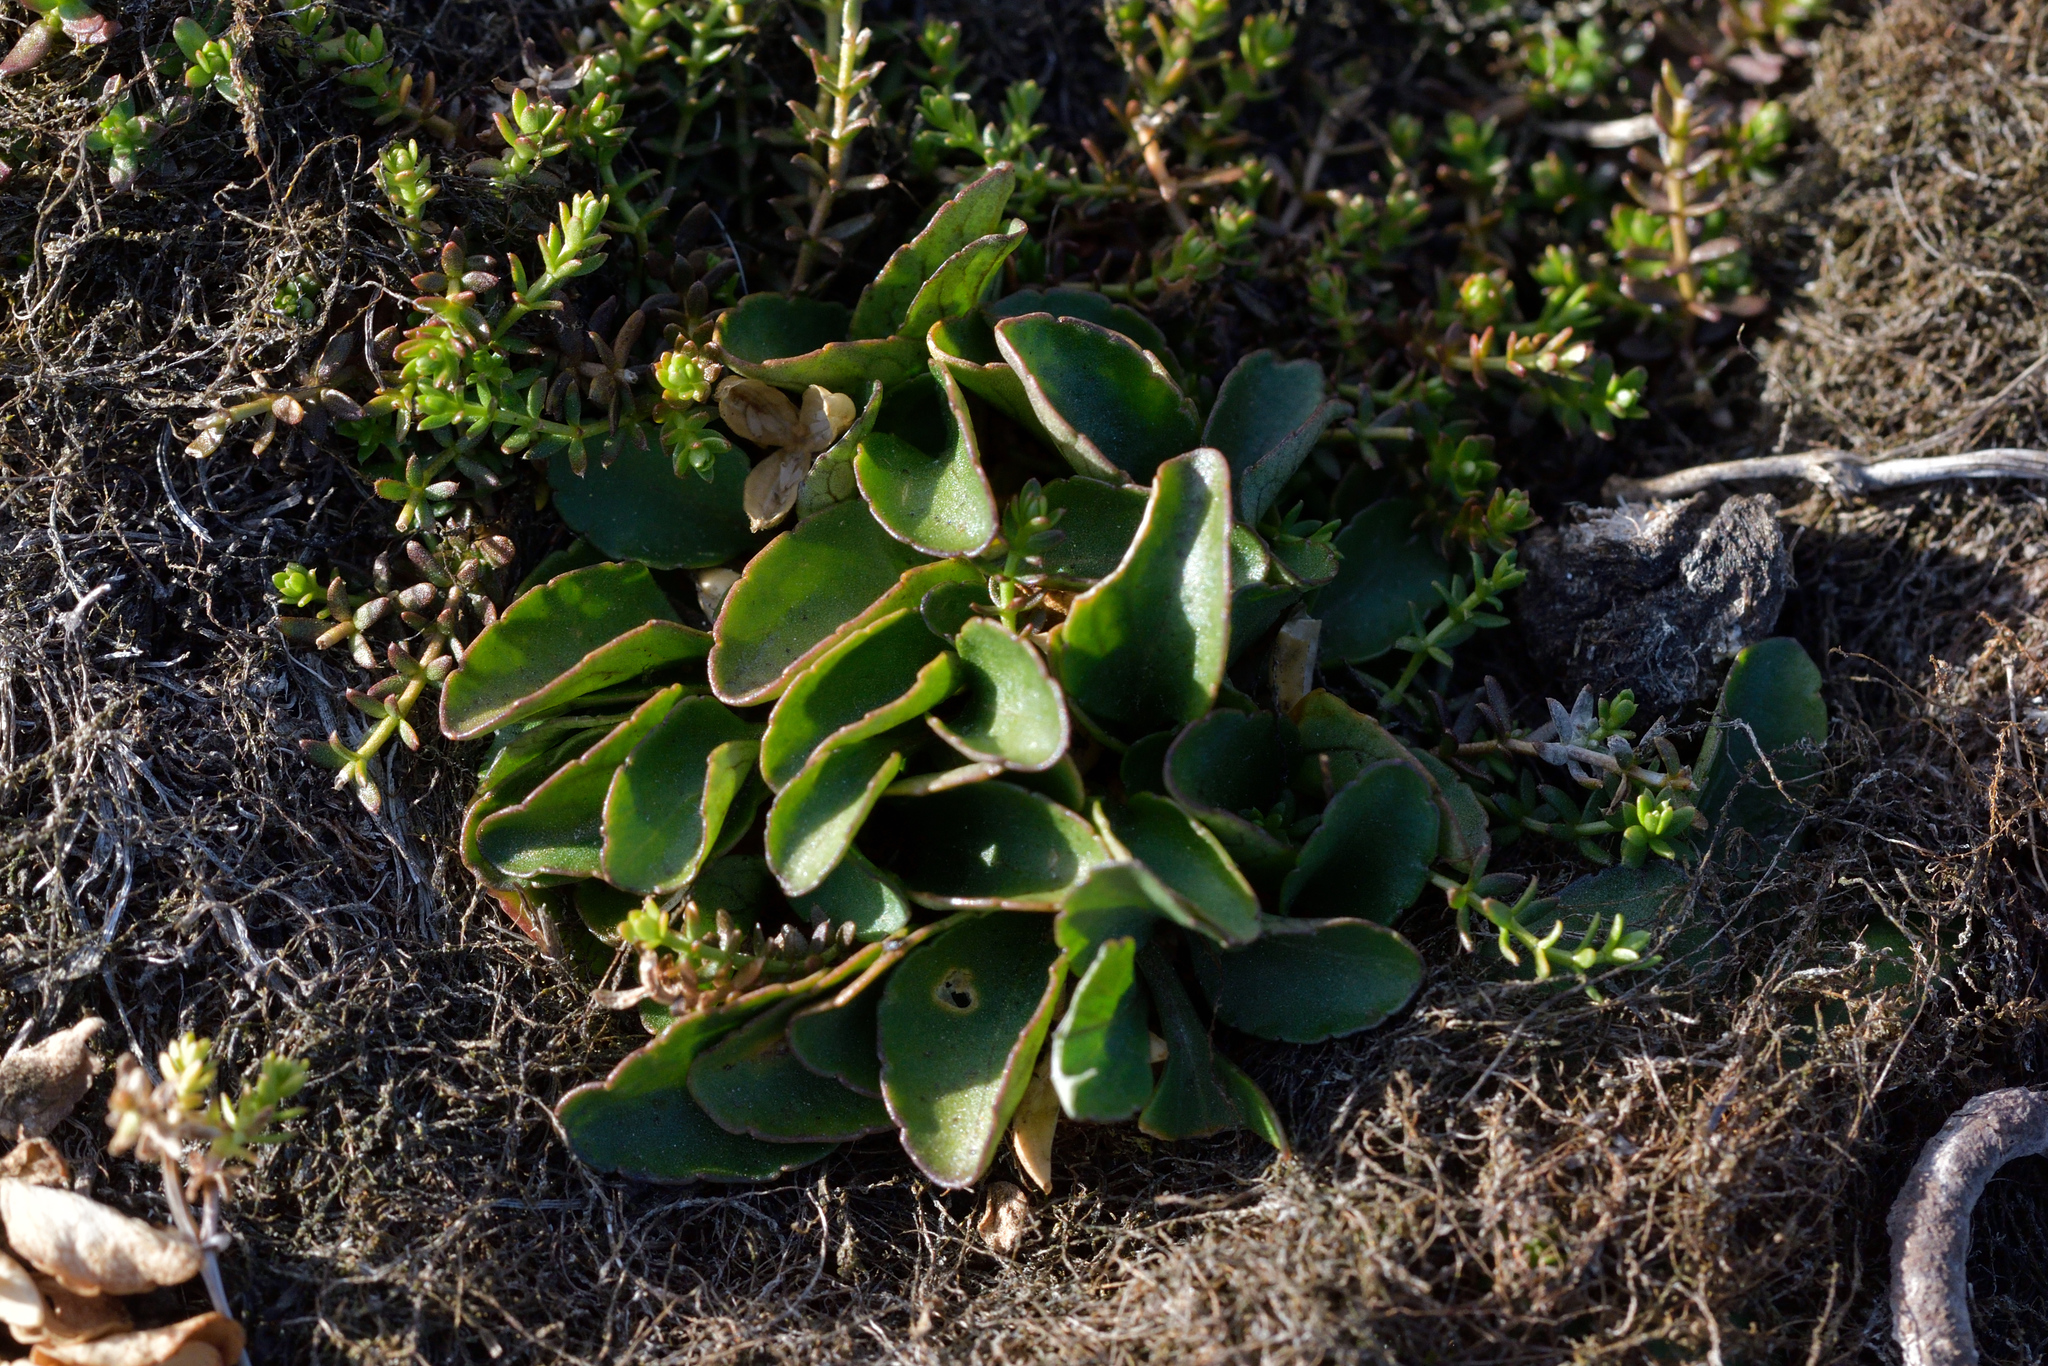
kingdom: Plantae
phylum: Tracheophyta
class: Magnoliopsida
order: Malpighiales
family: Violaceae
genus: Viola
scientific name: Viola cunninghamii
